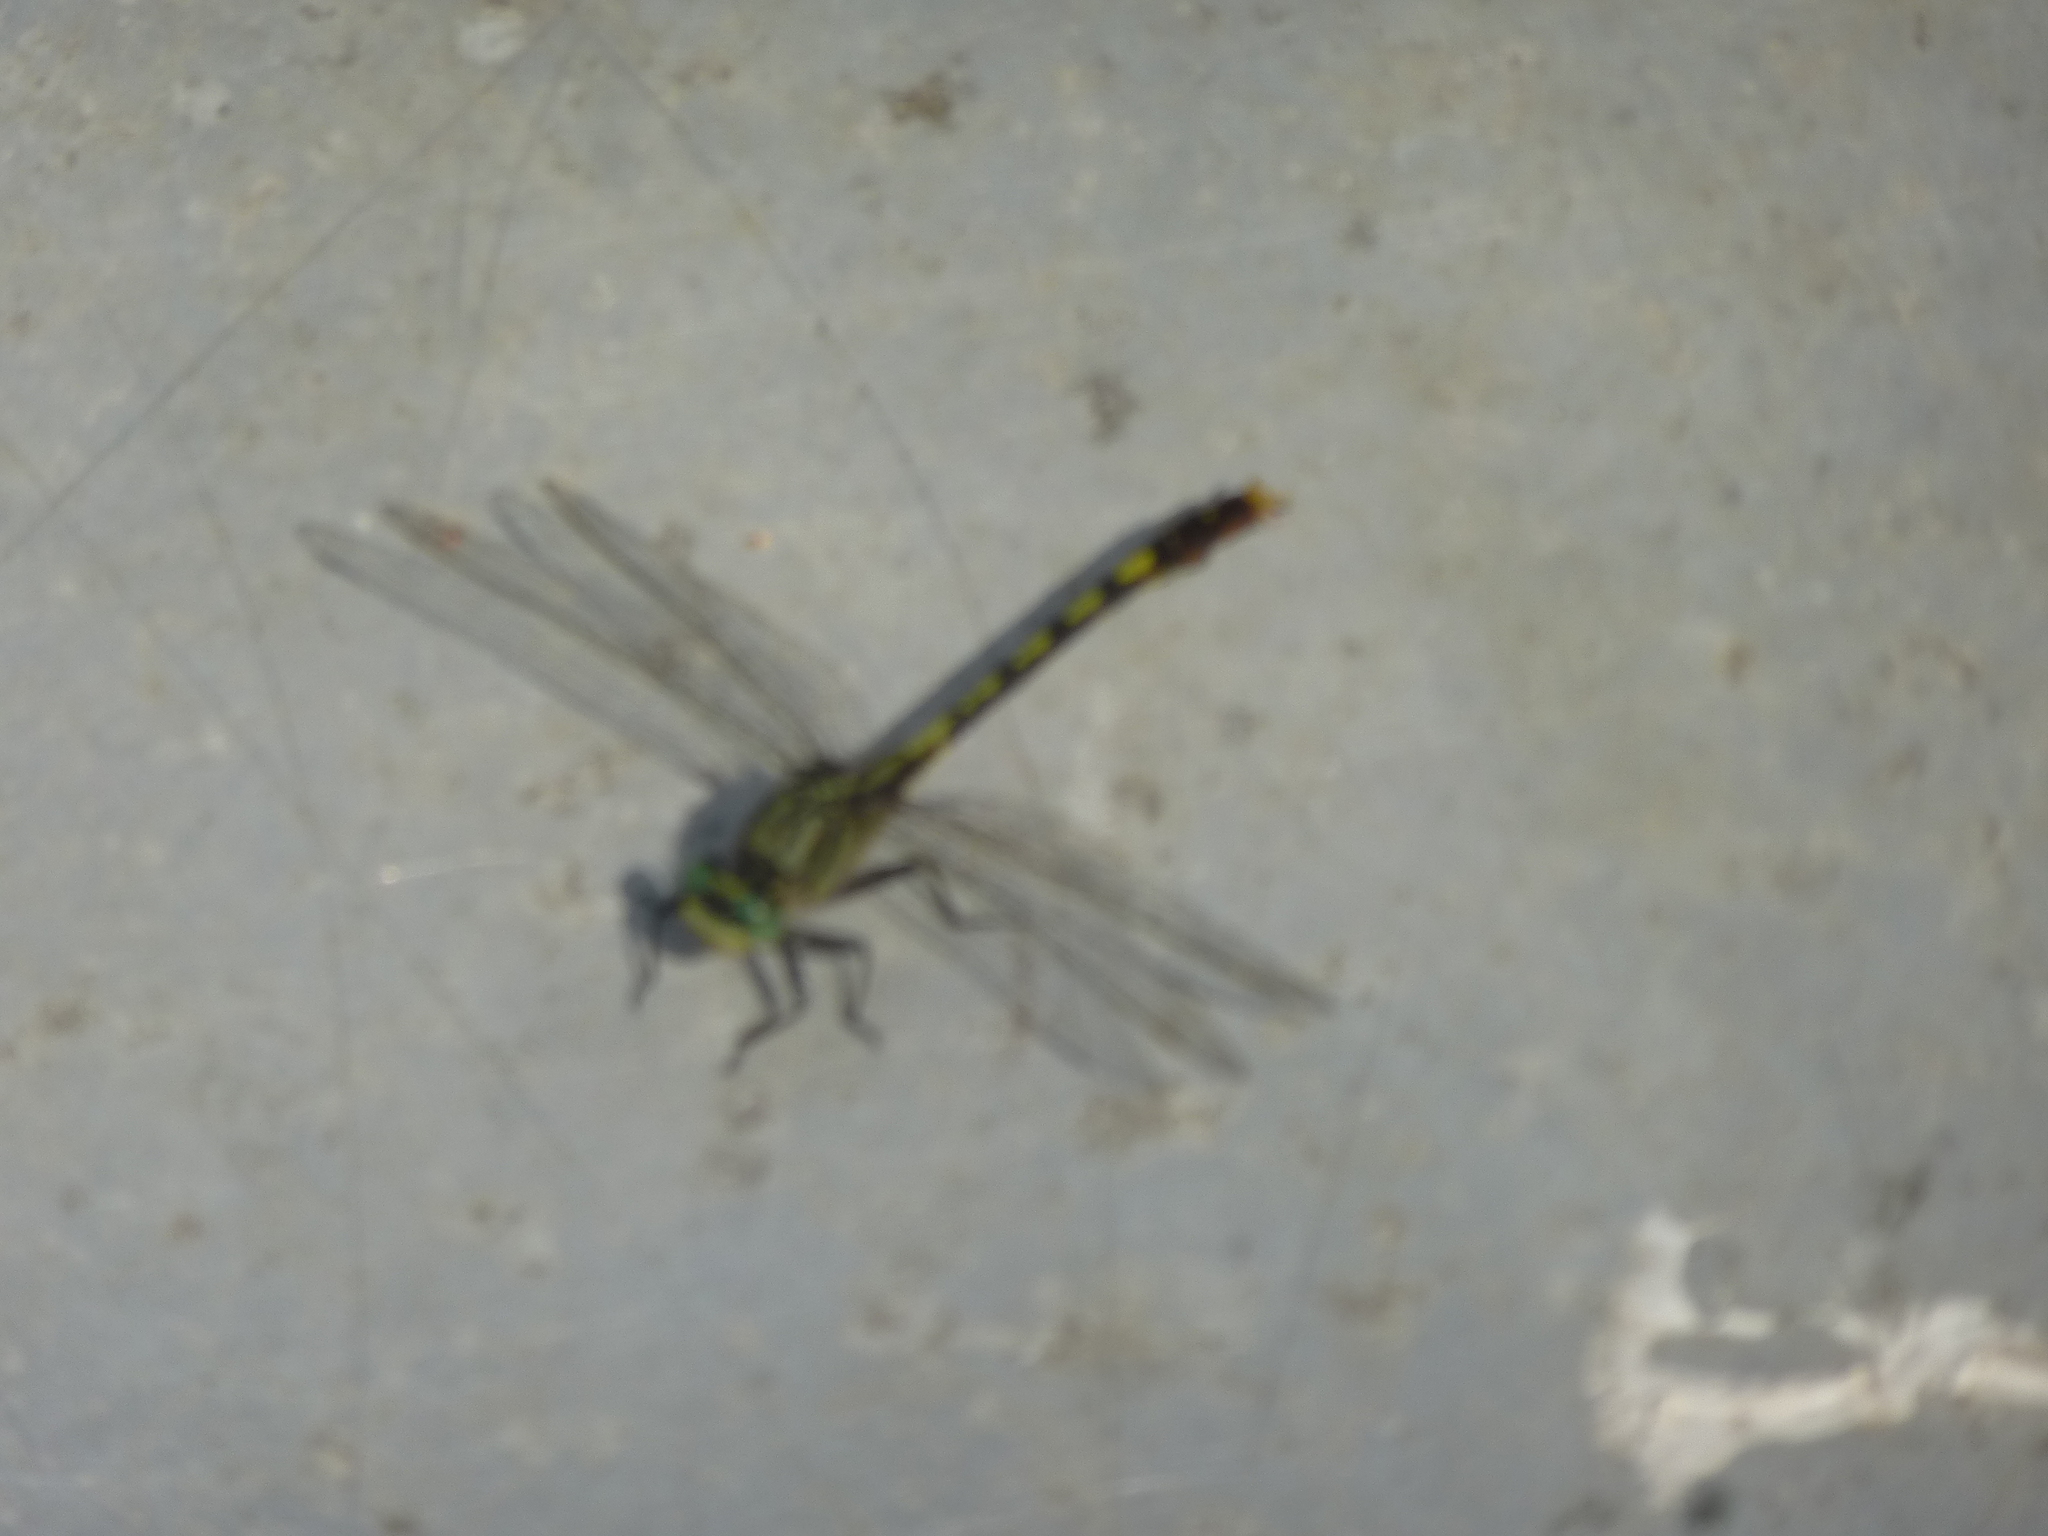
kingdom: Animalia
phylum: Arthropoda
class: Insecta
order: Odonata
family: Gomphidae
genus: Arigomphus
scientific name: Arigomphus villosipes
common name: Unicorn clubtail
